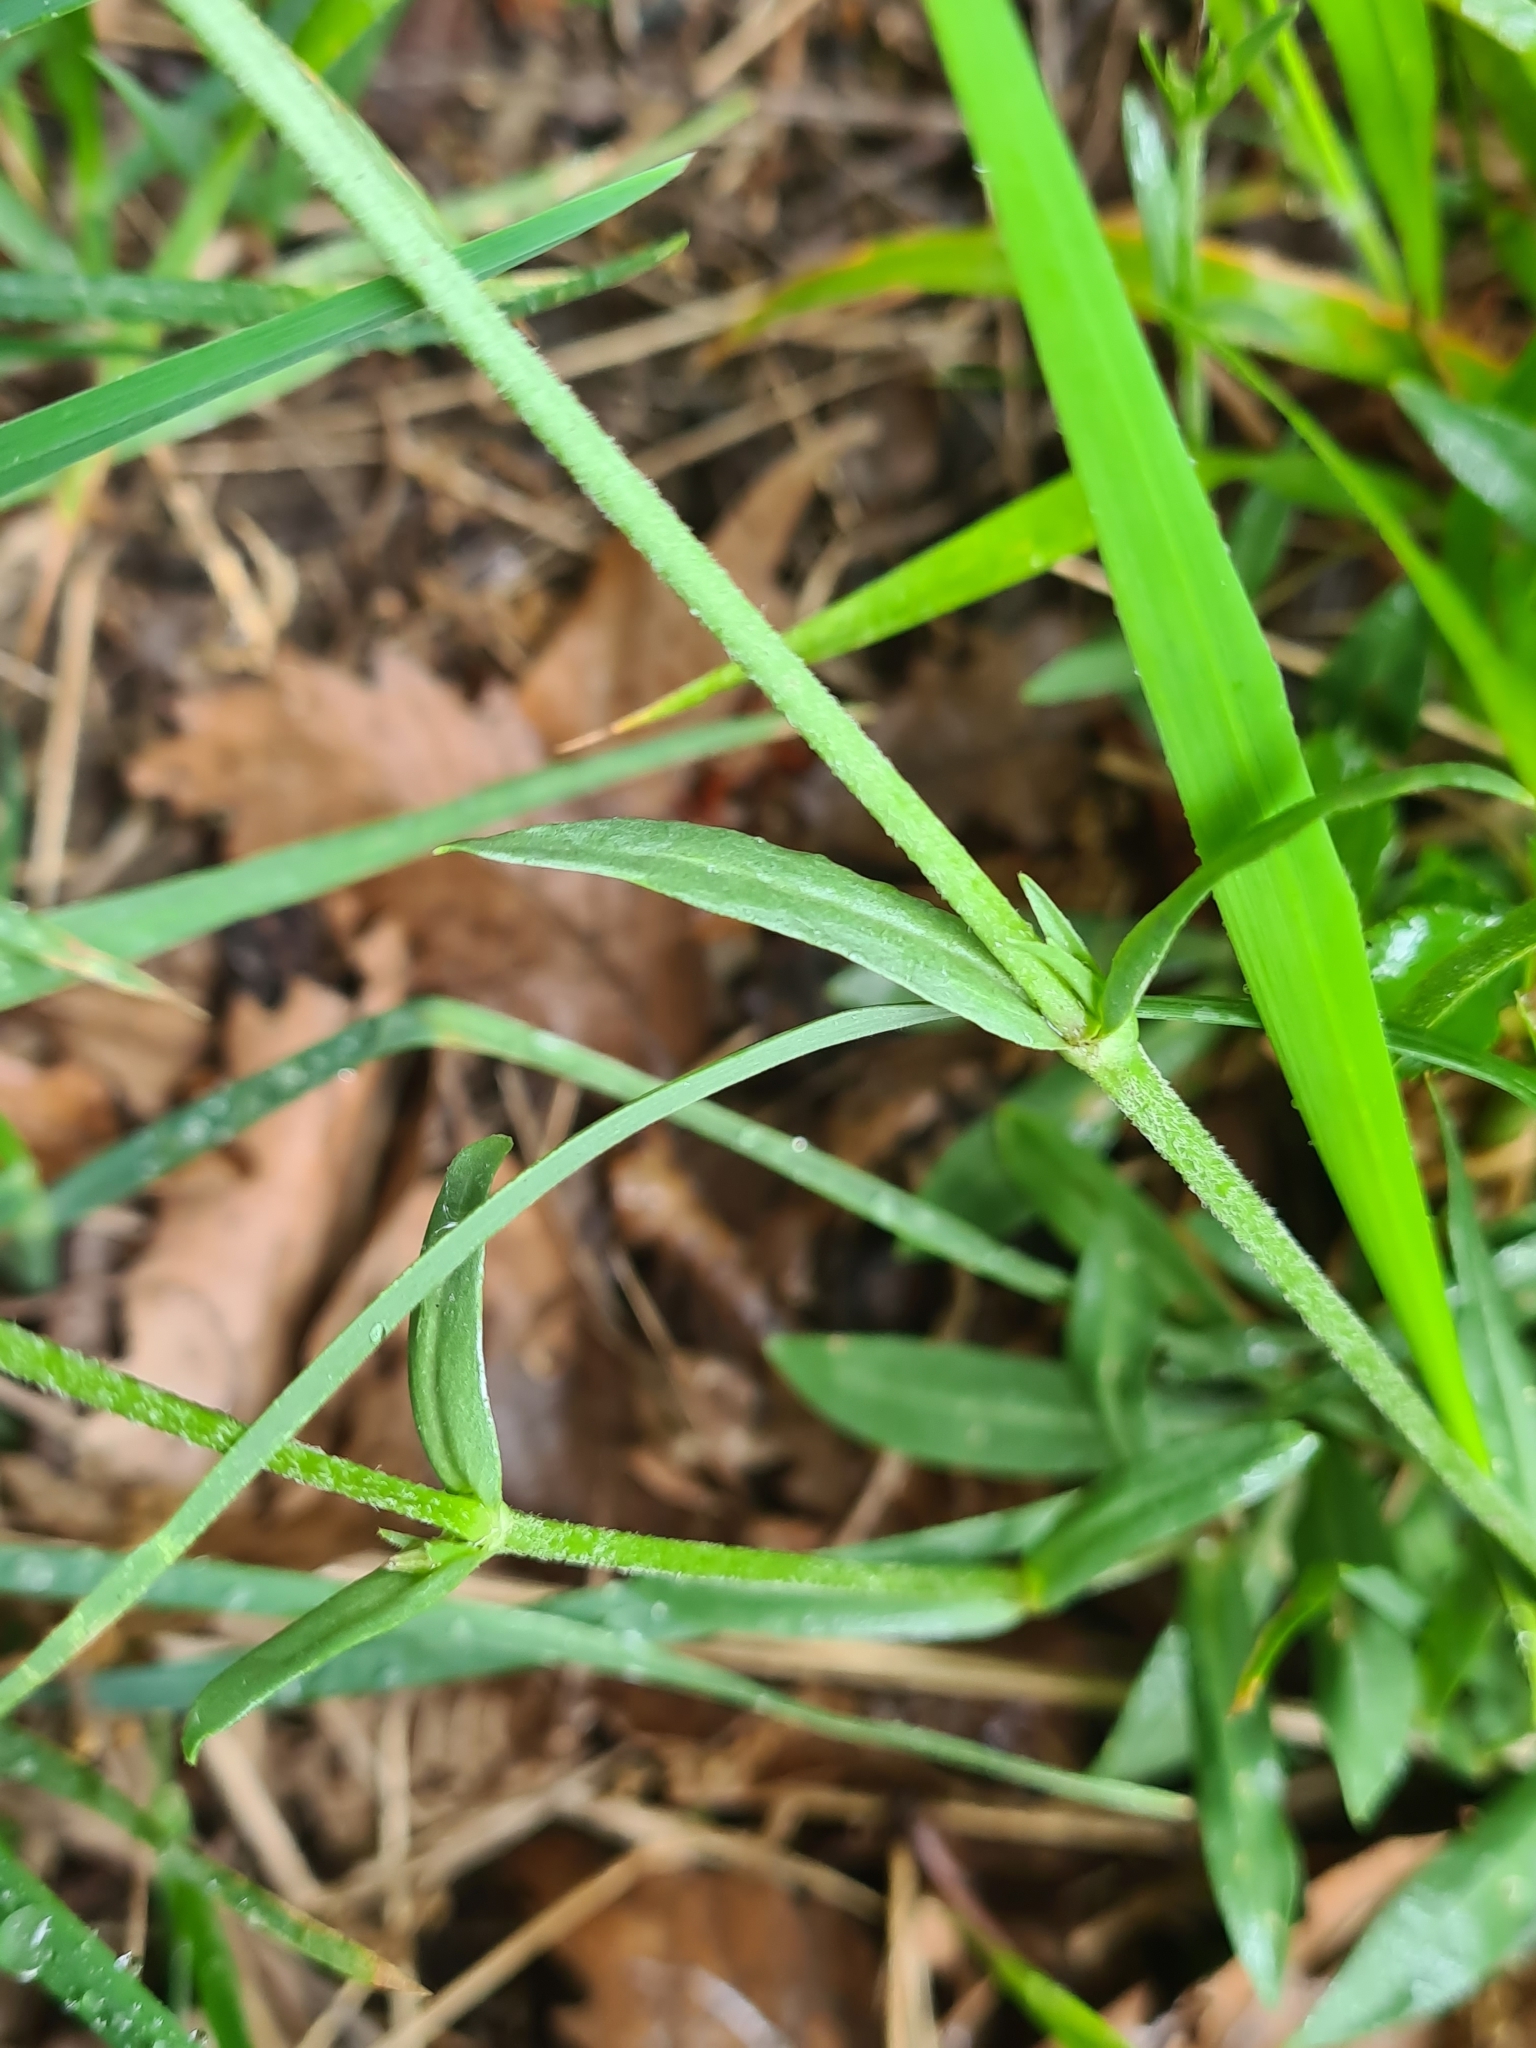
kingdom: Plantae
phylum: Tracheophyta
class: Magnoliopsida
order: Caryophyllales
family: Caryophyllaceae
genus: Silene
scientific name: Silene flos-cuculi
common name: Ragged-robin
